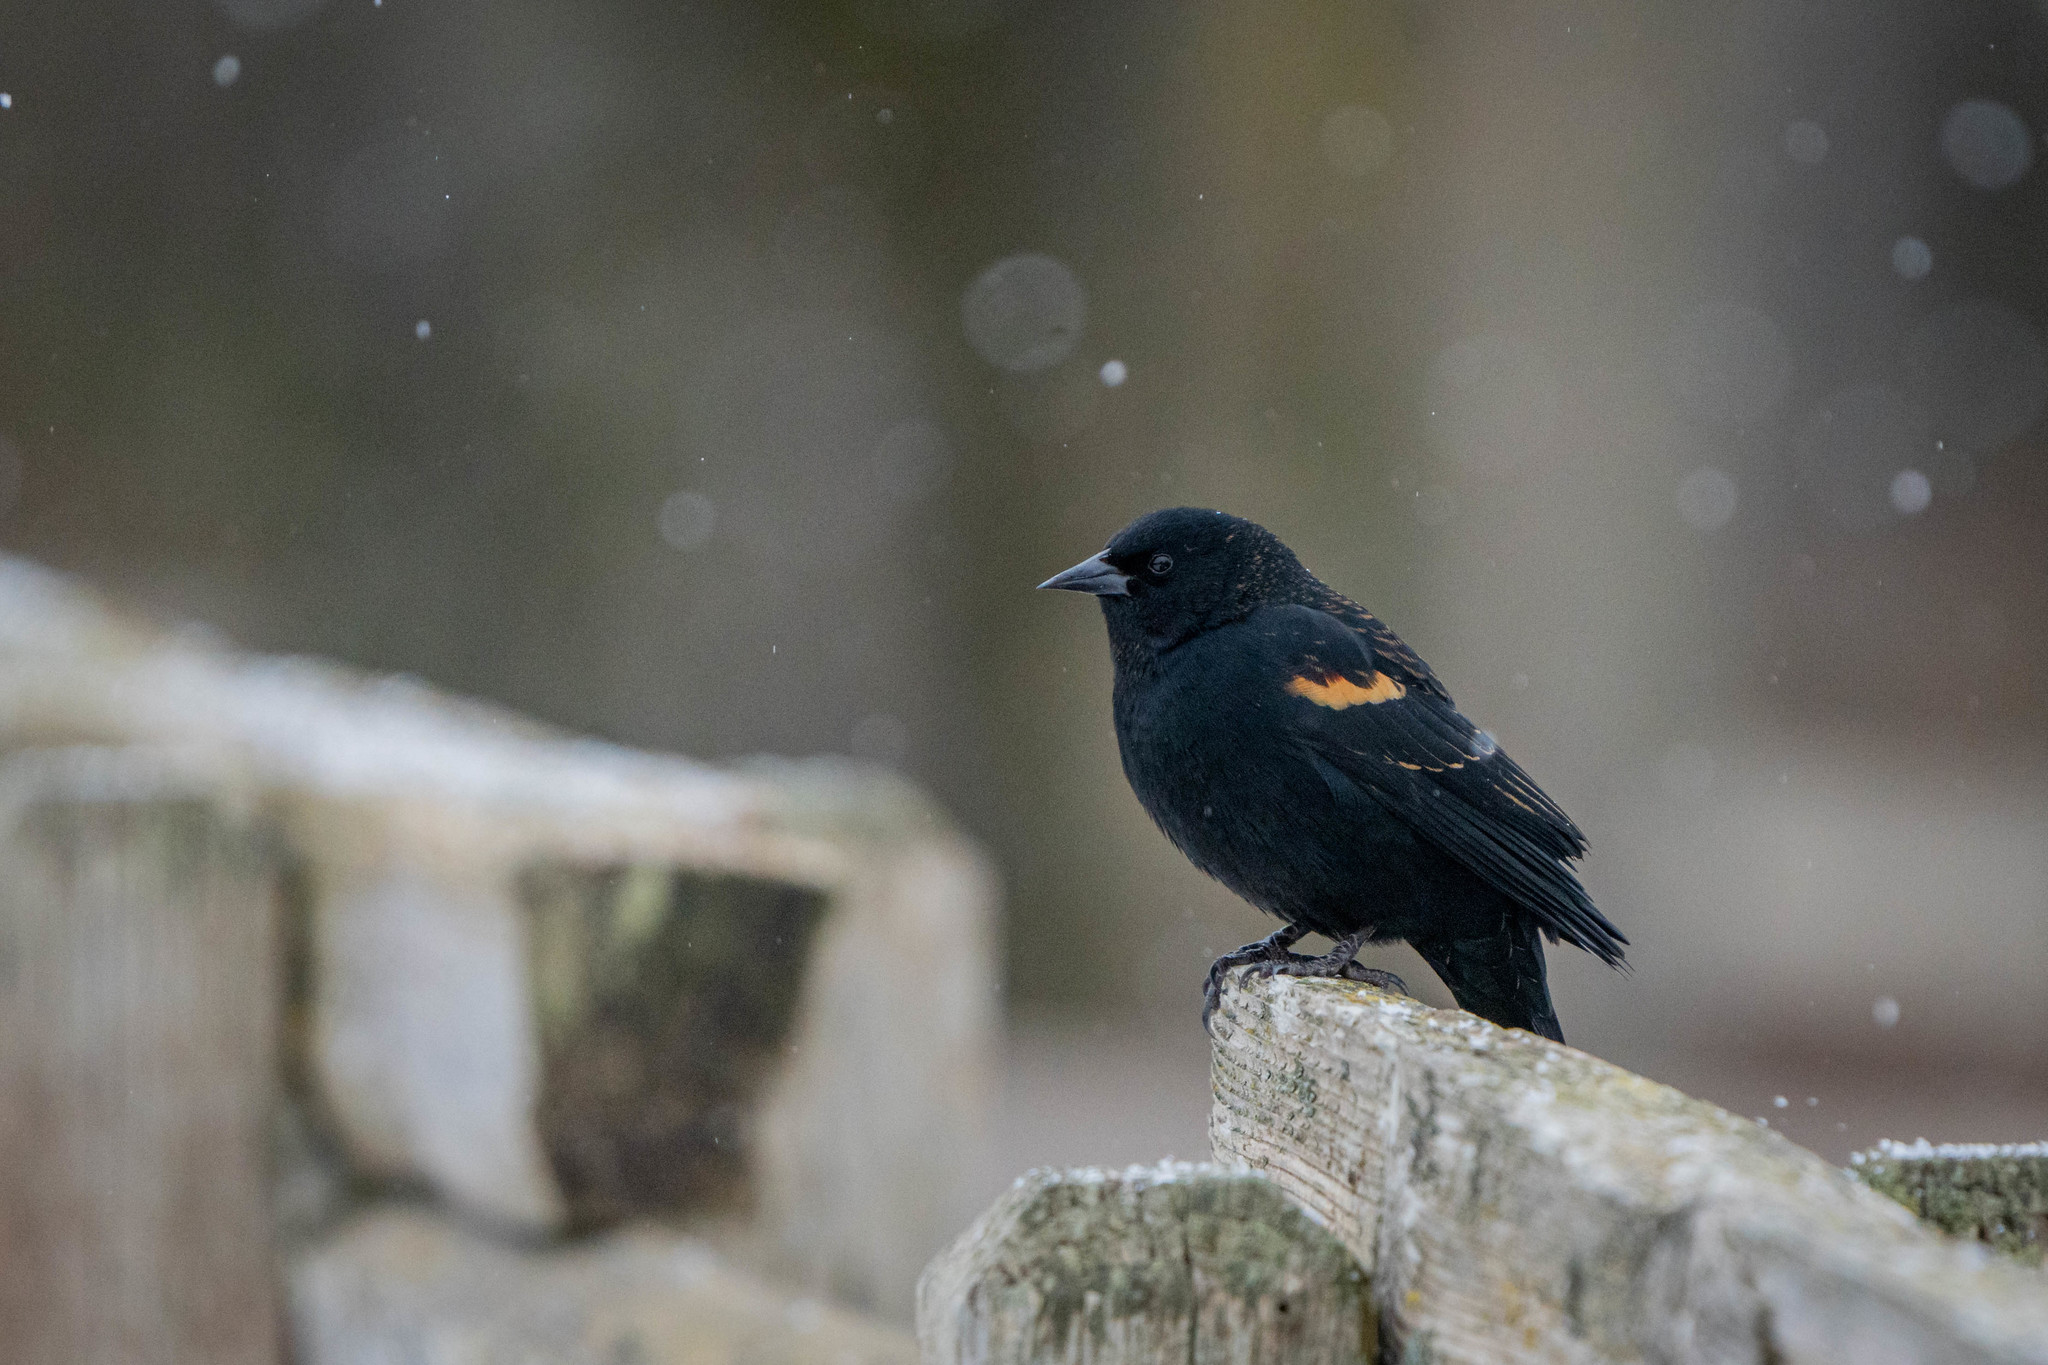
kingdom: Animalia
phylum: Chordata
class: Aves
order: Passeriformes
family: Icteridae
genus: Agelaius
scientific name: Agelaius phoeniceus
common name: Red-winged blackbird
